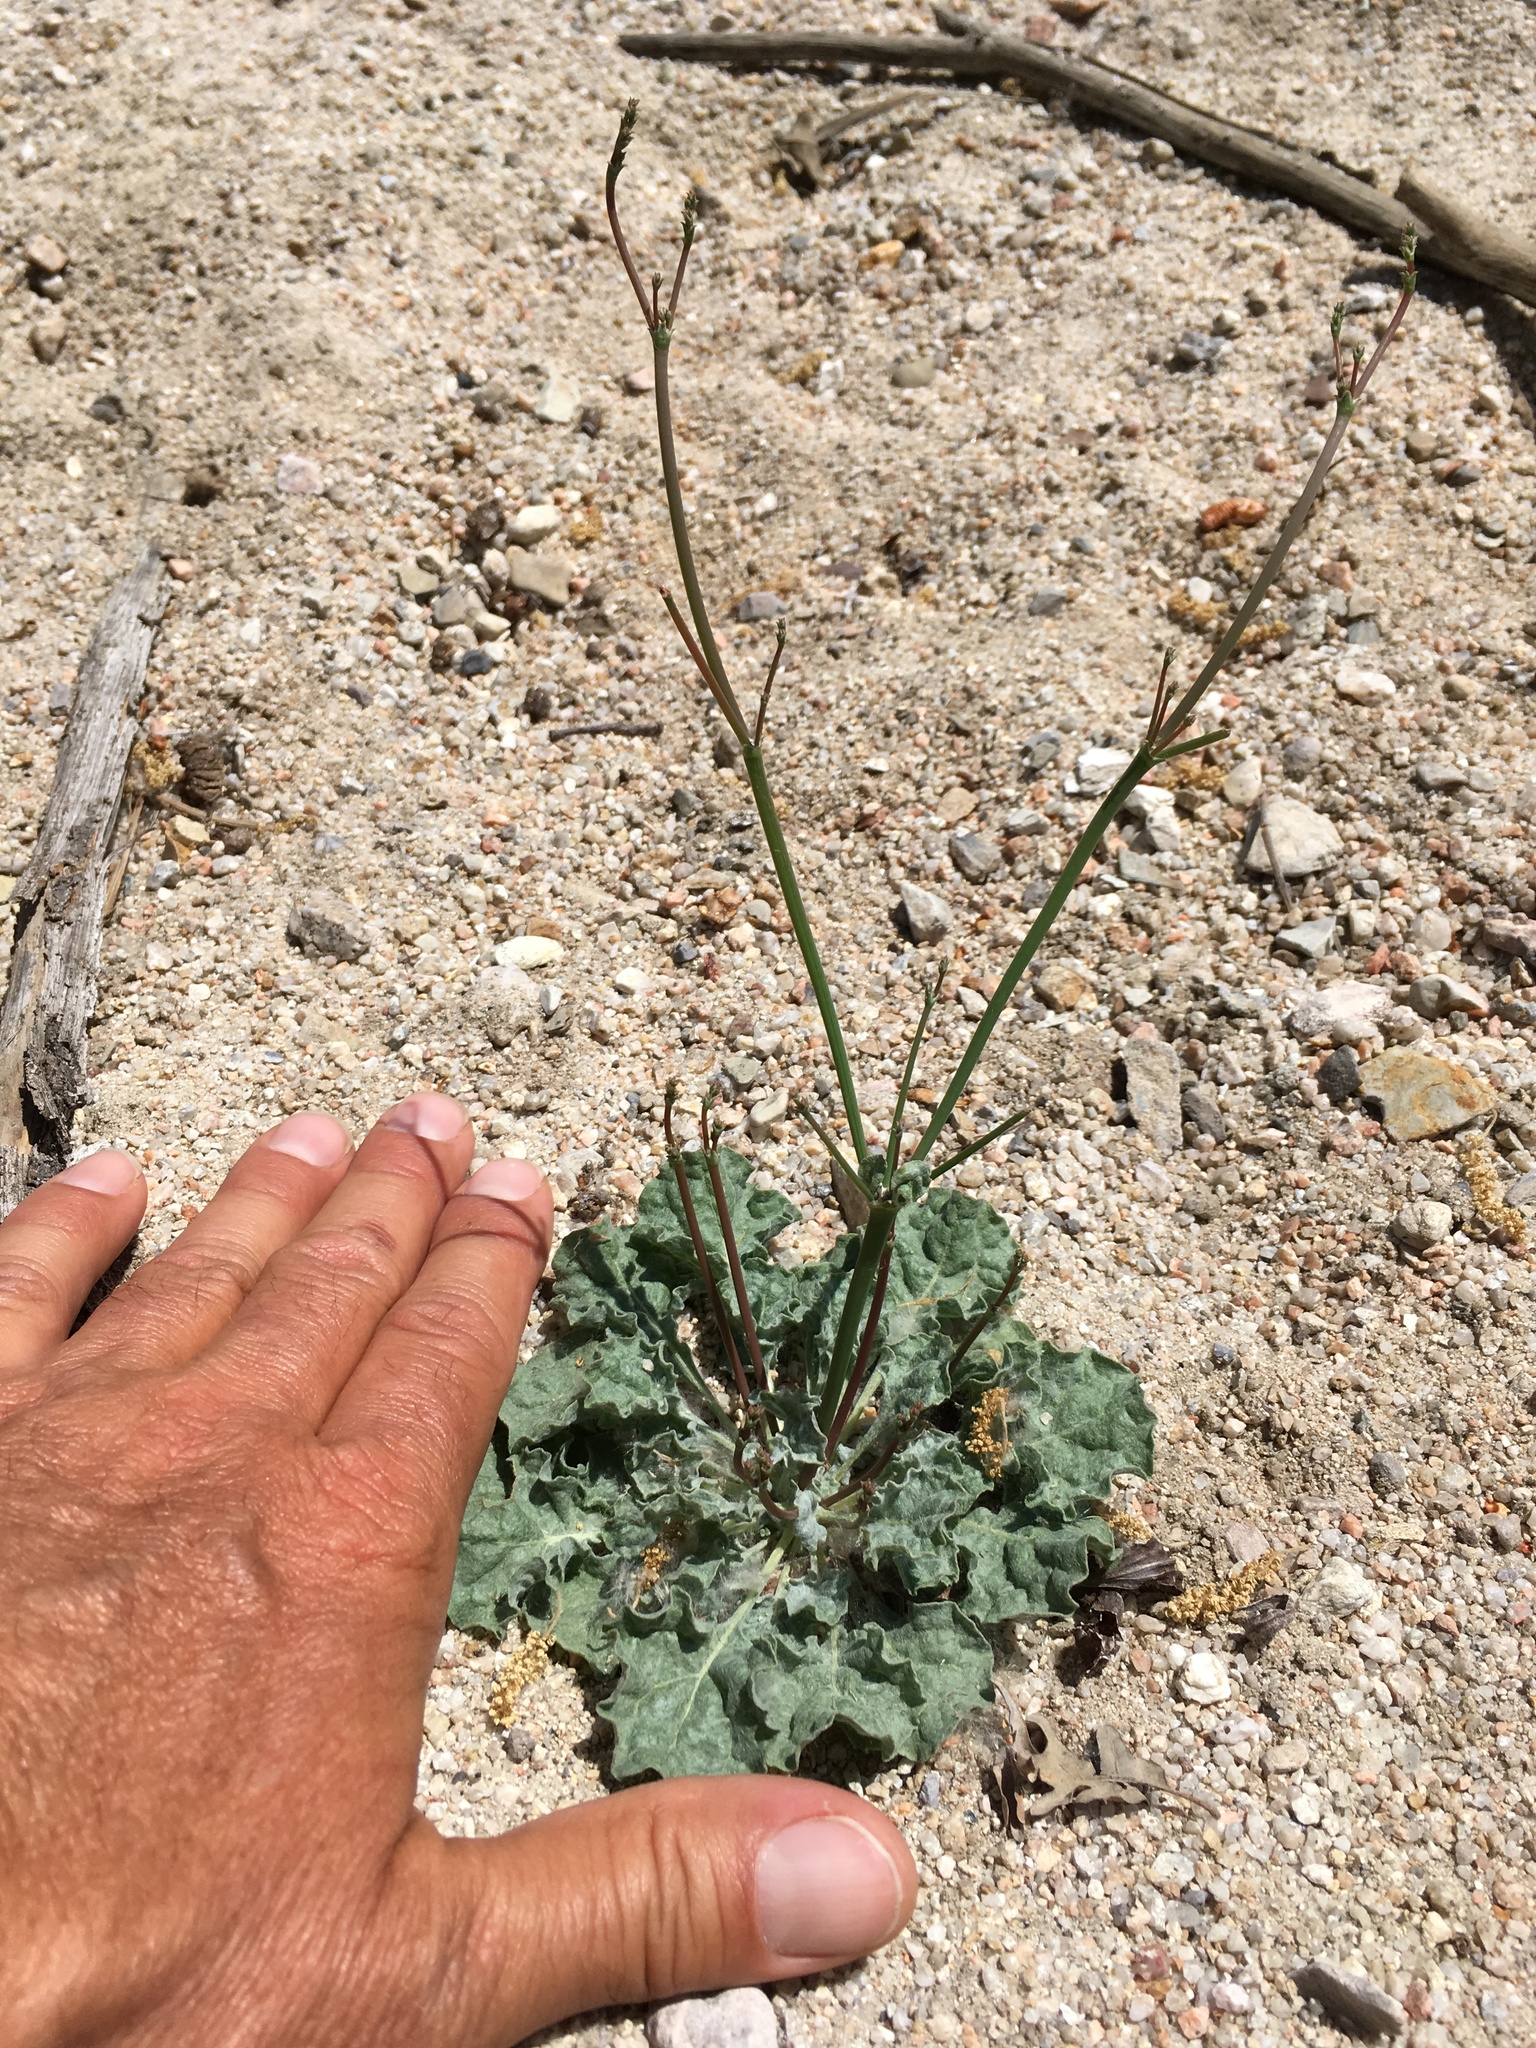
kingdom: Plantae
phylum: Tracheophyta
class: Magnoliopsida
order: Caryophyllales
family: Polygonaceae
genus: Eriogonum
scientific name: Eriogonum elegans
